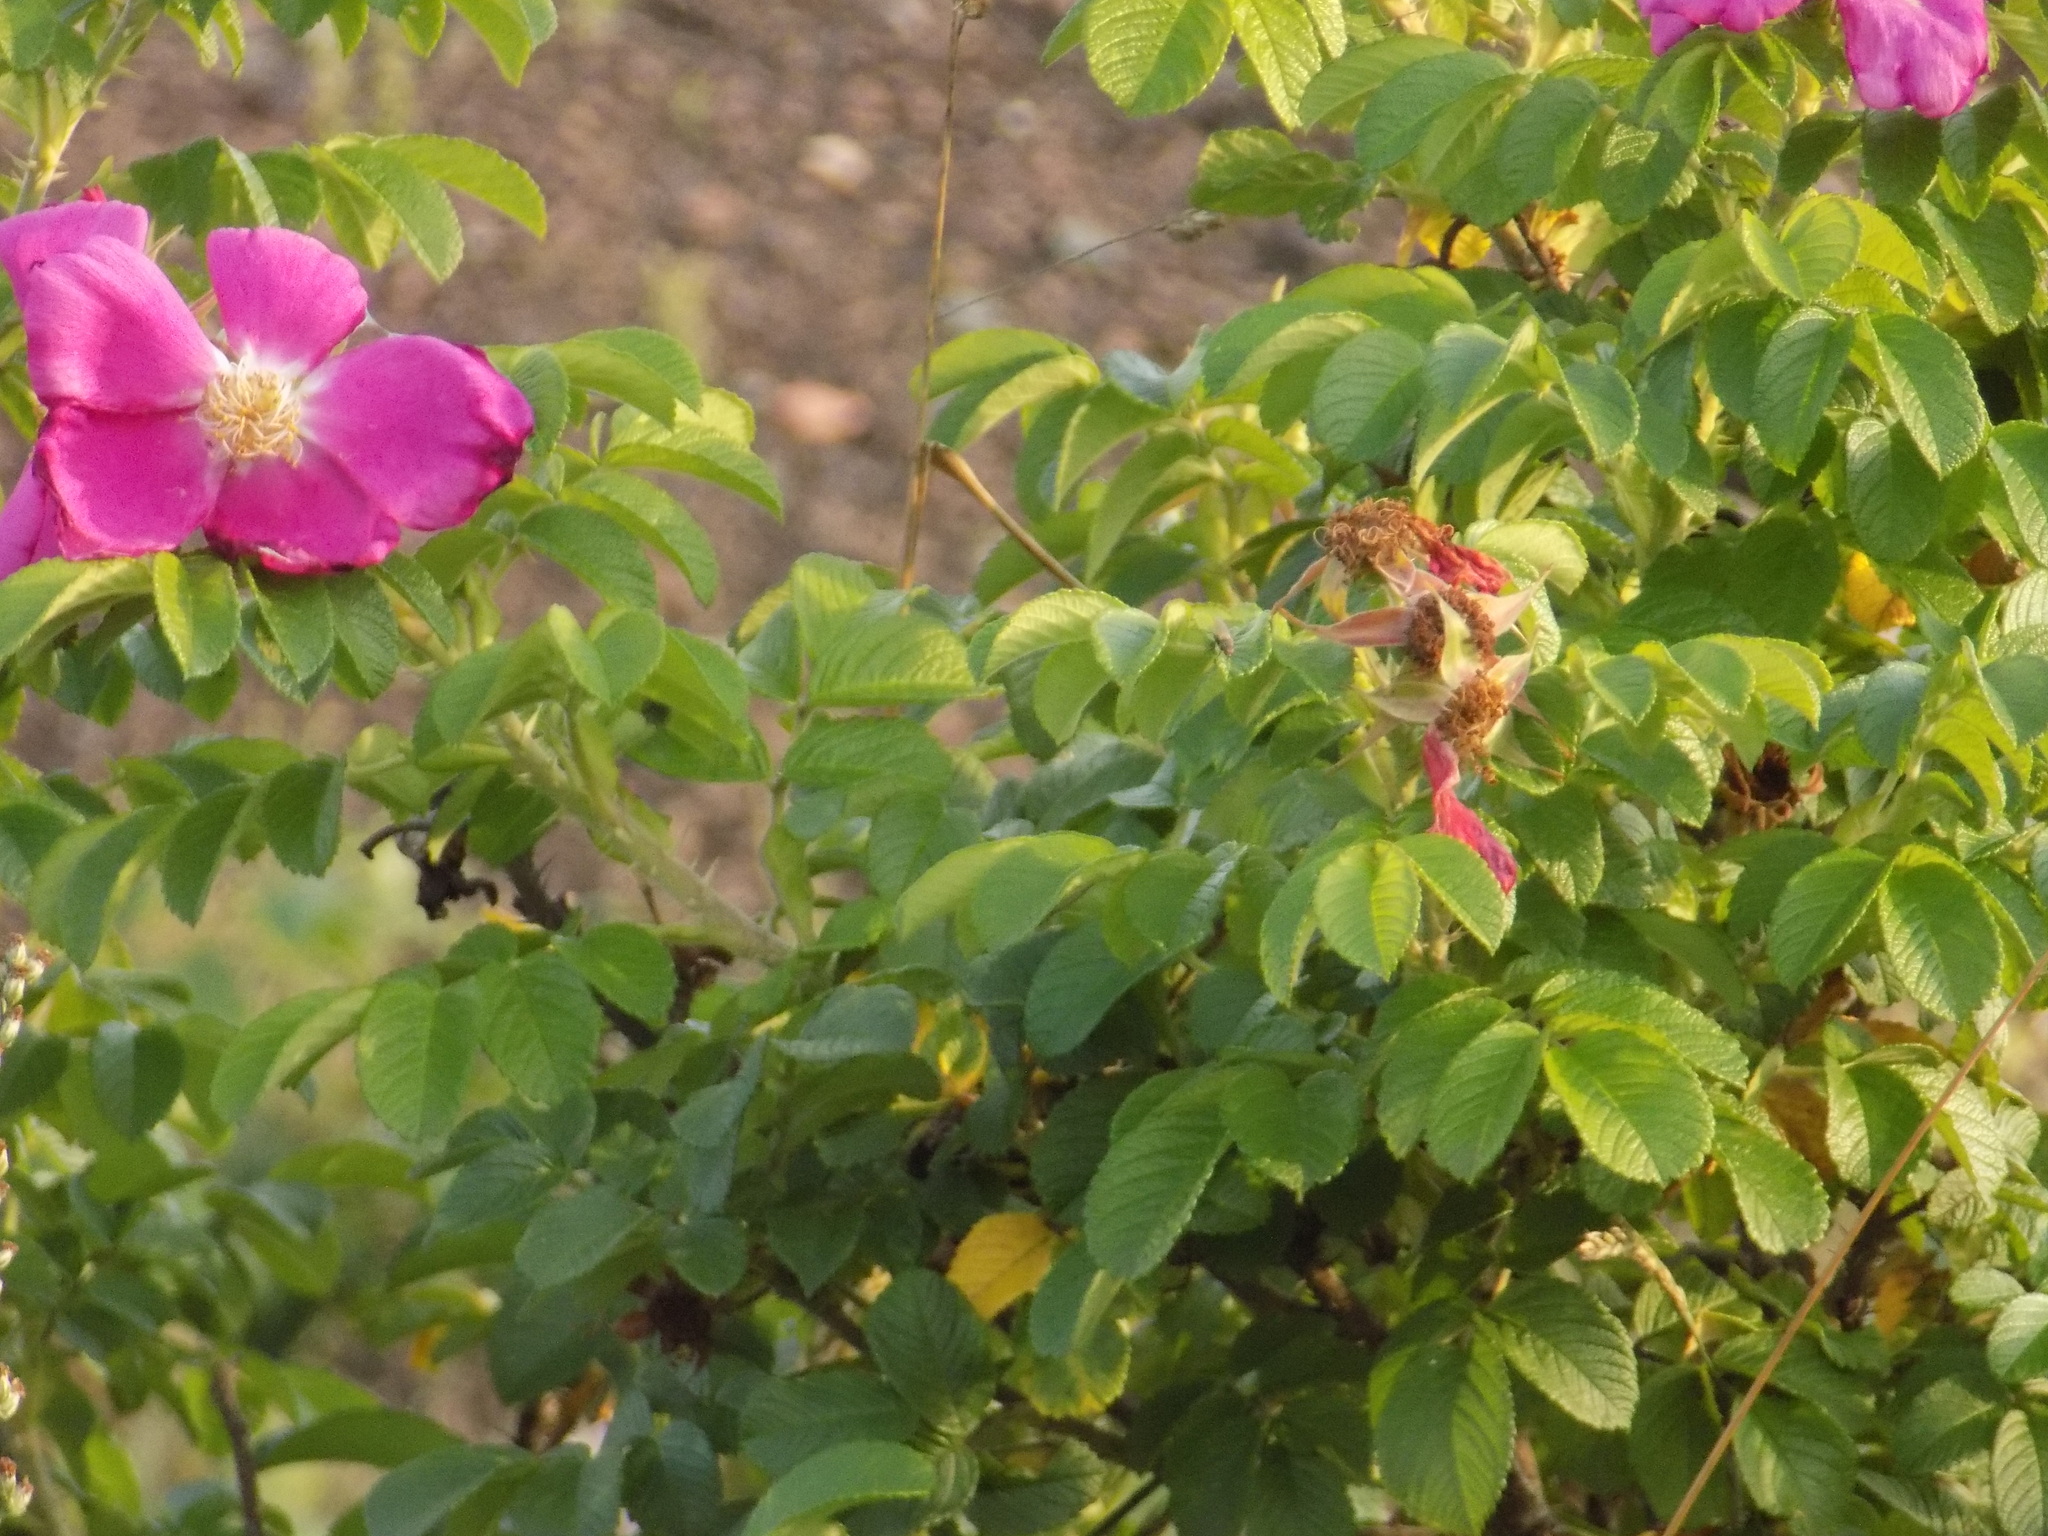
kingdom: Plantae
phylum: Tracheophyta
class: Magnoliopsida
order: Rosales
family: Rosaceae
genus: Rosa
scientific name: Rosa rugosa
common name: Japanese rose
